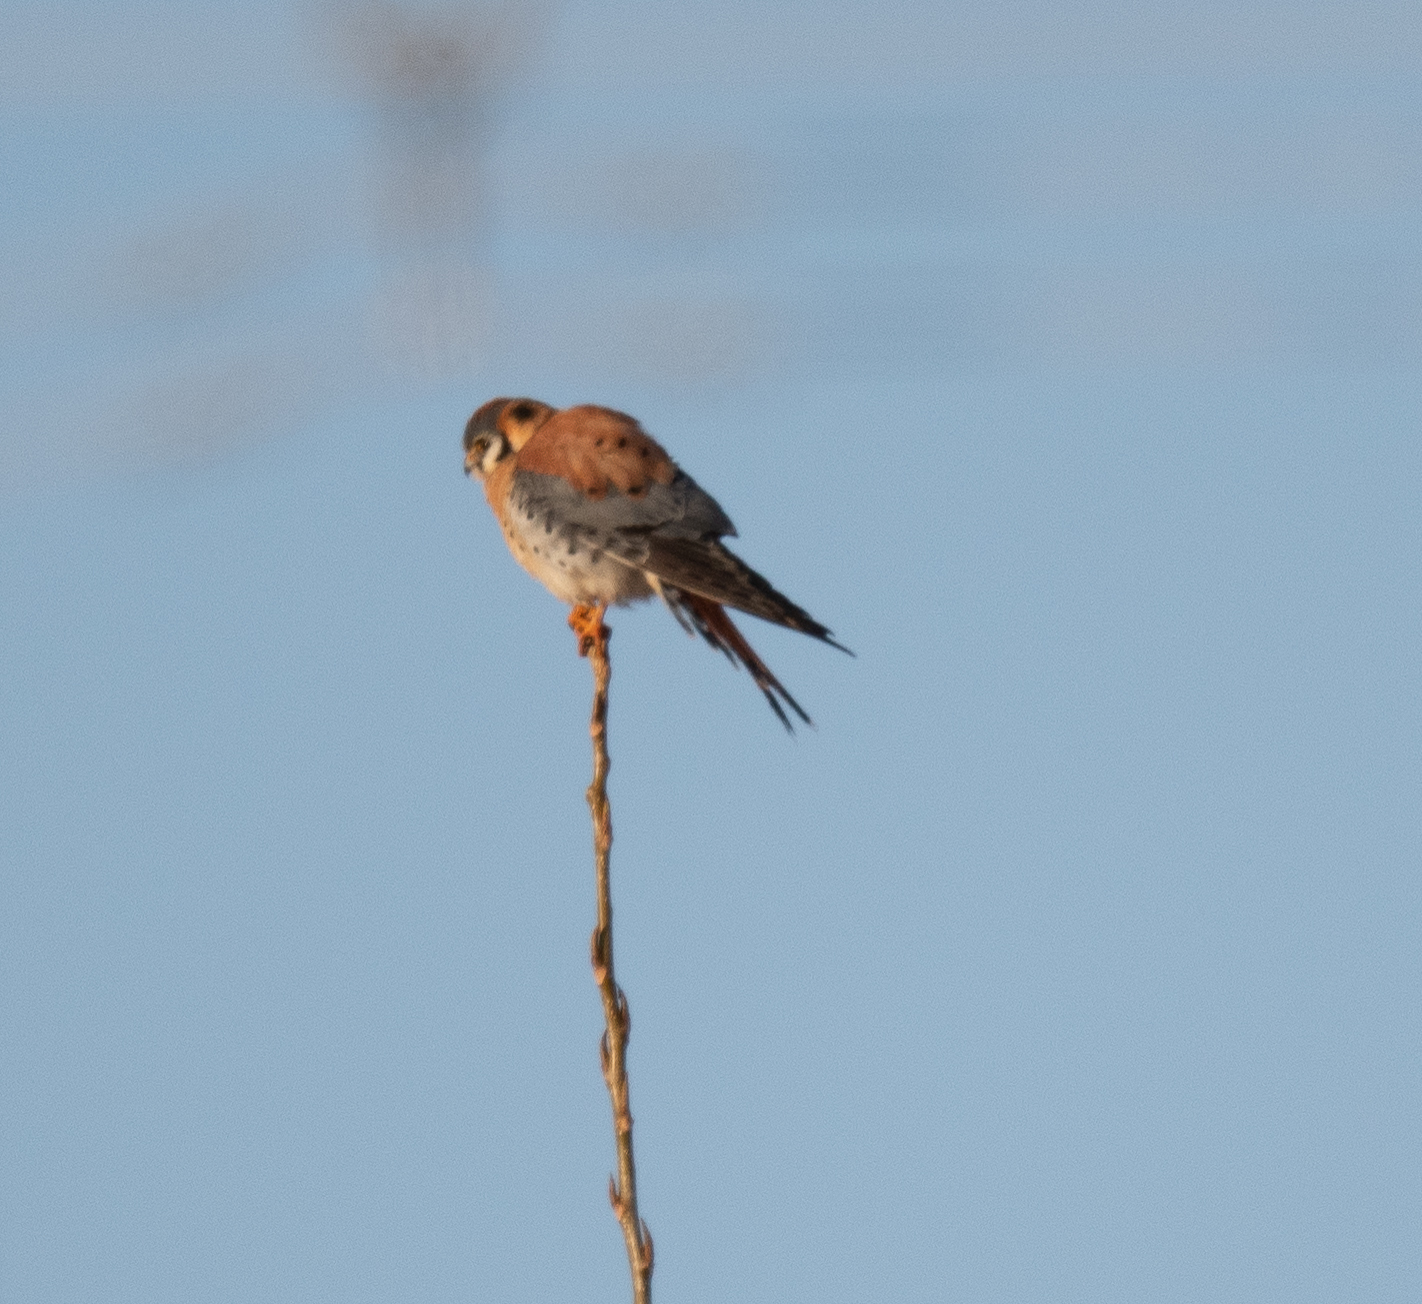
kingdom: Animalia
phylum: Chordata
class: Aves
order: Falconiformes
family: Falconidae
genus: Falco
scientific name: Falco sparverius
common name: American kestrel
